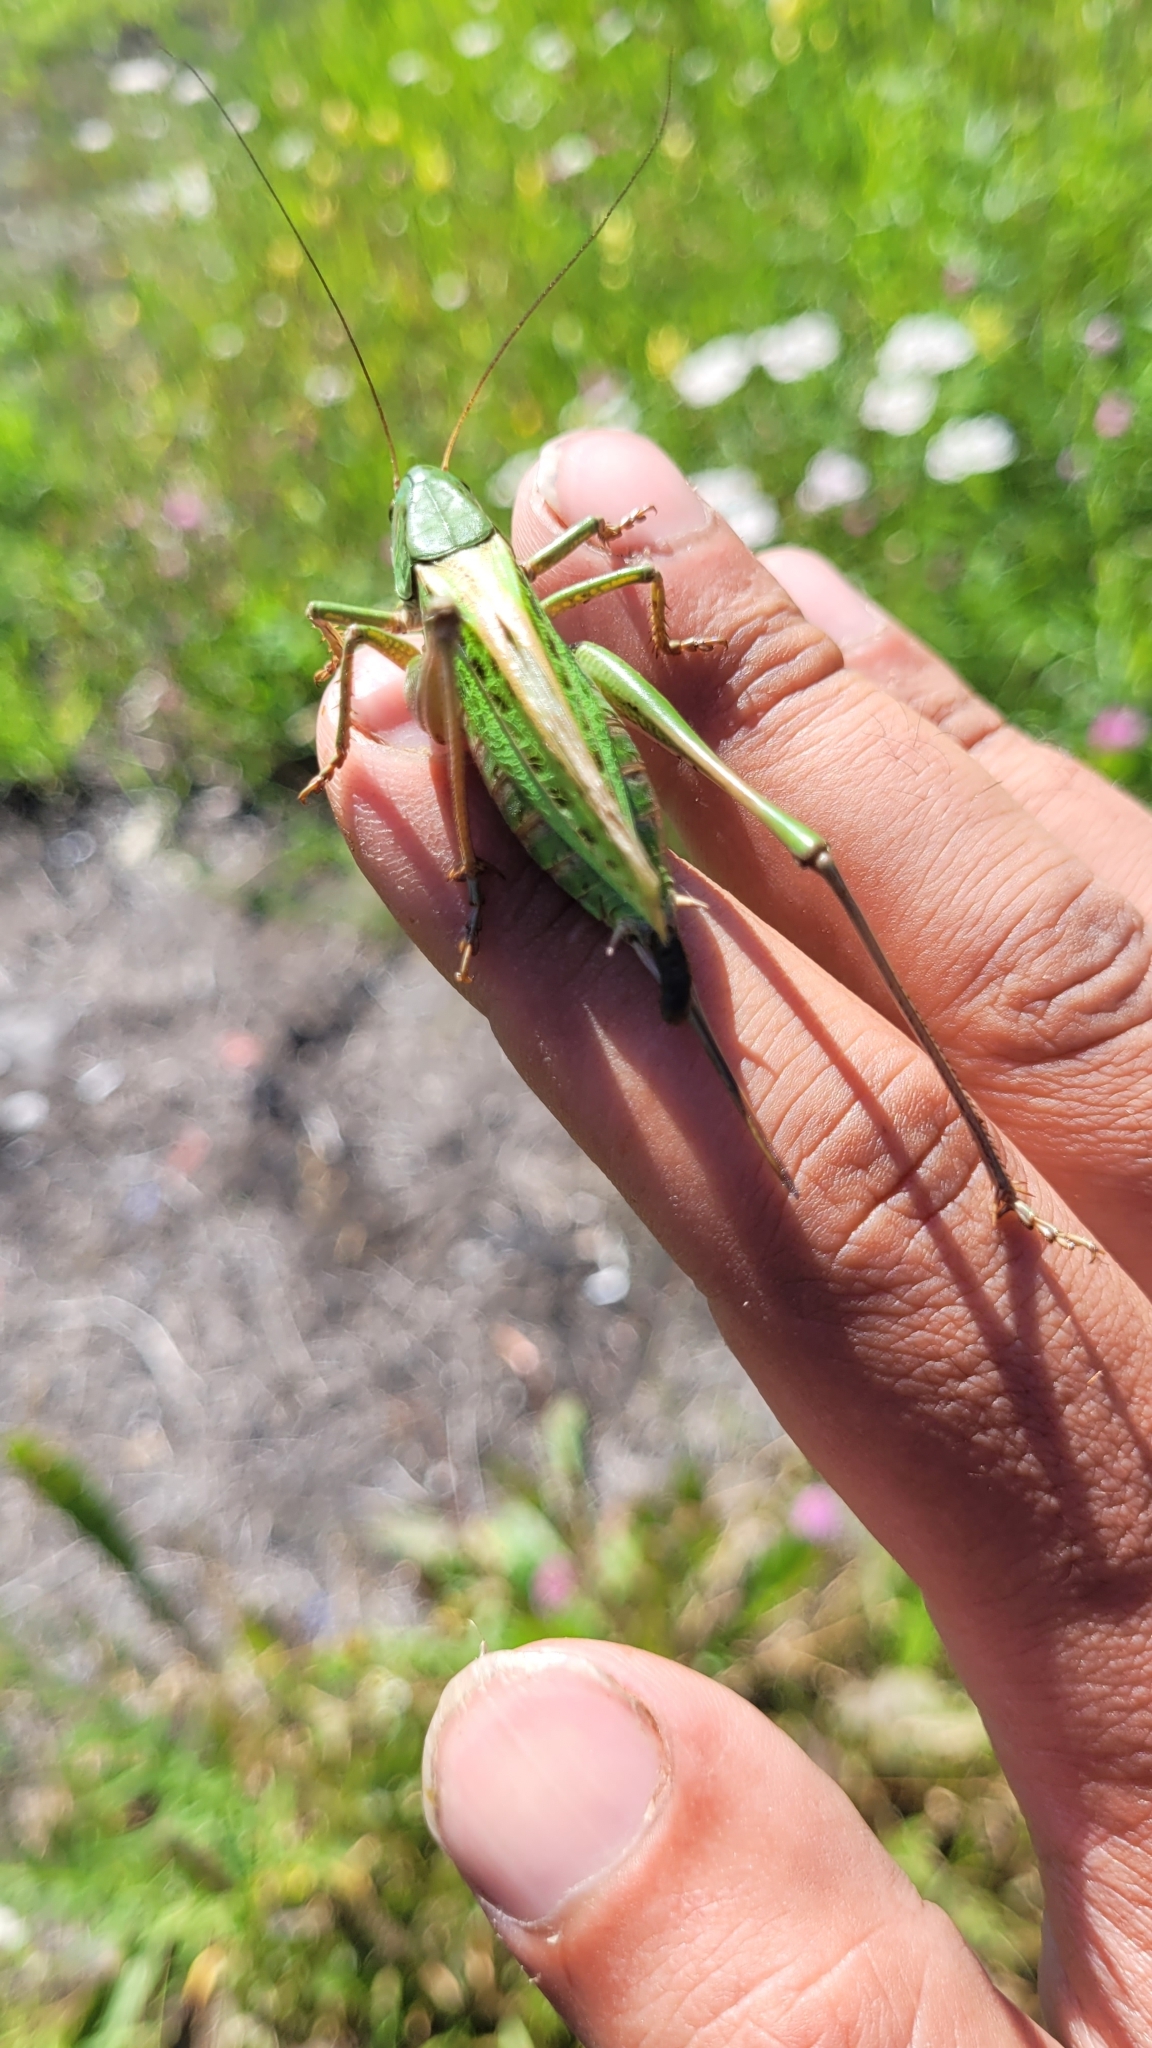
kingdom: Animalia
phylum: Arthropoda
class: Insecta
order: Orthoptera
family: Tettigoniidae
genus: Decticus
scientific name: Decticus verrucivorus
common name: Wart-biter
